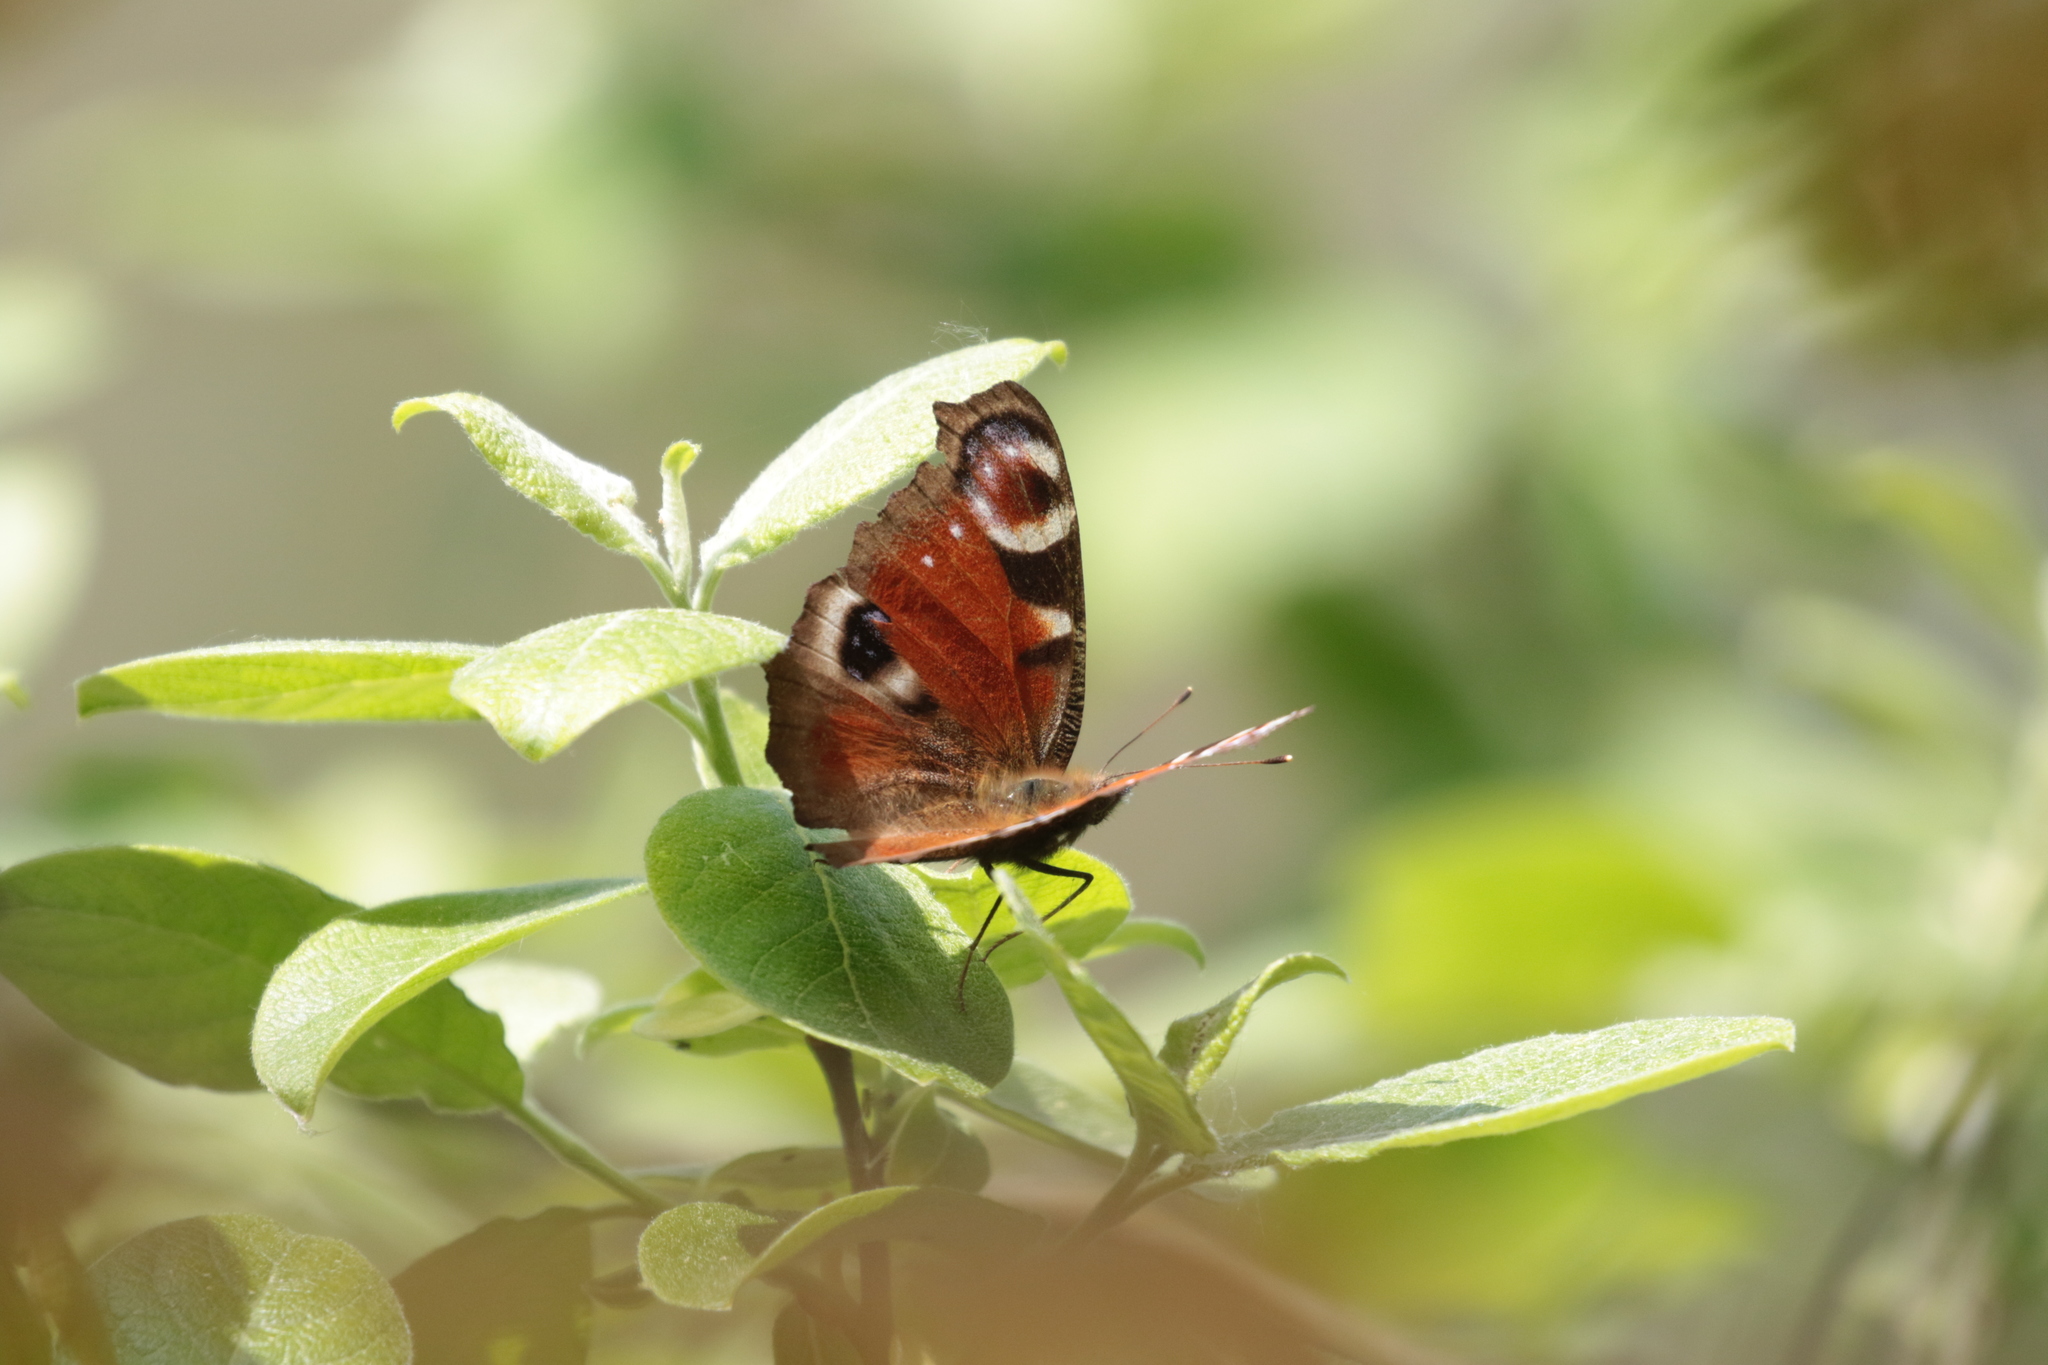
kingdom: Animalia
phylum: Arthropoda
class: Insecta
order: Lepidoptera
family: Nymphalidae
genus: Aglais
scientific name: Aglais io
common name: Peacock
